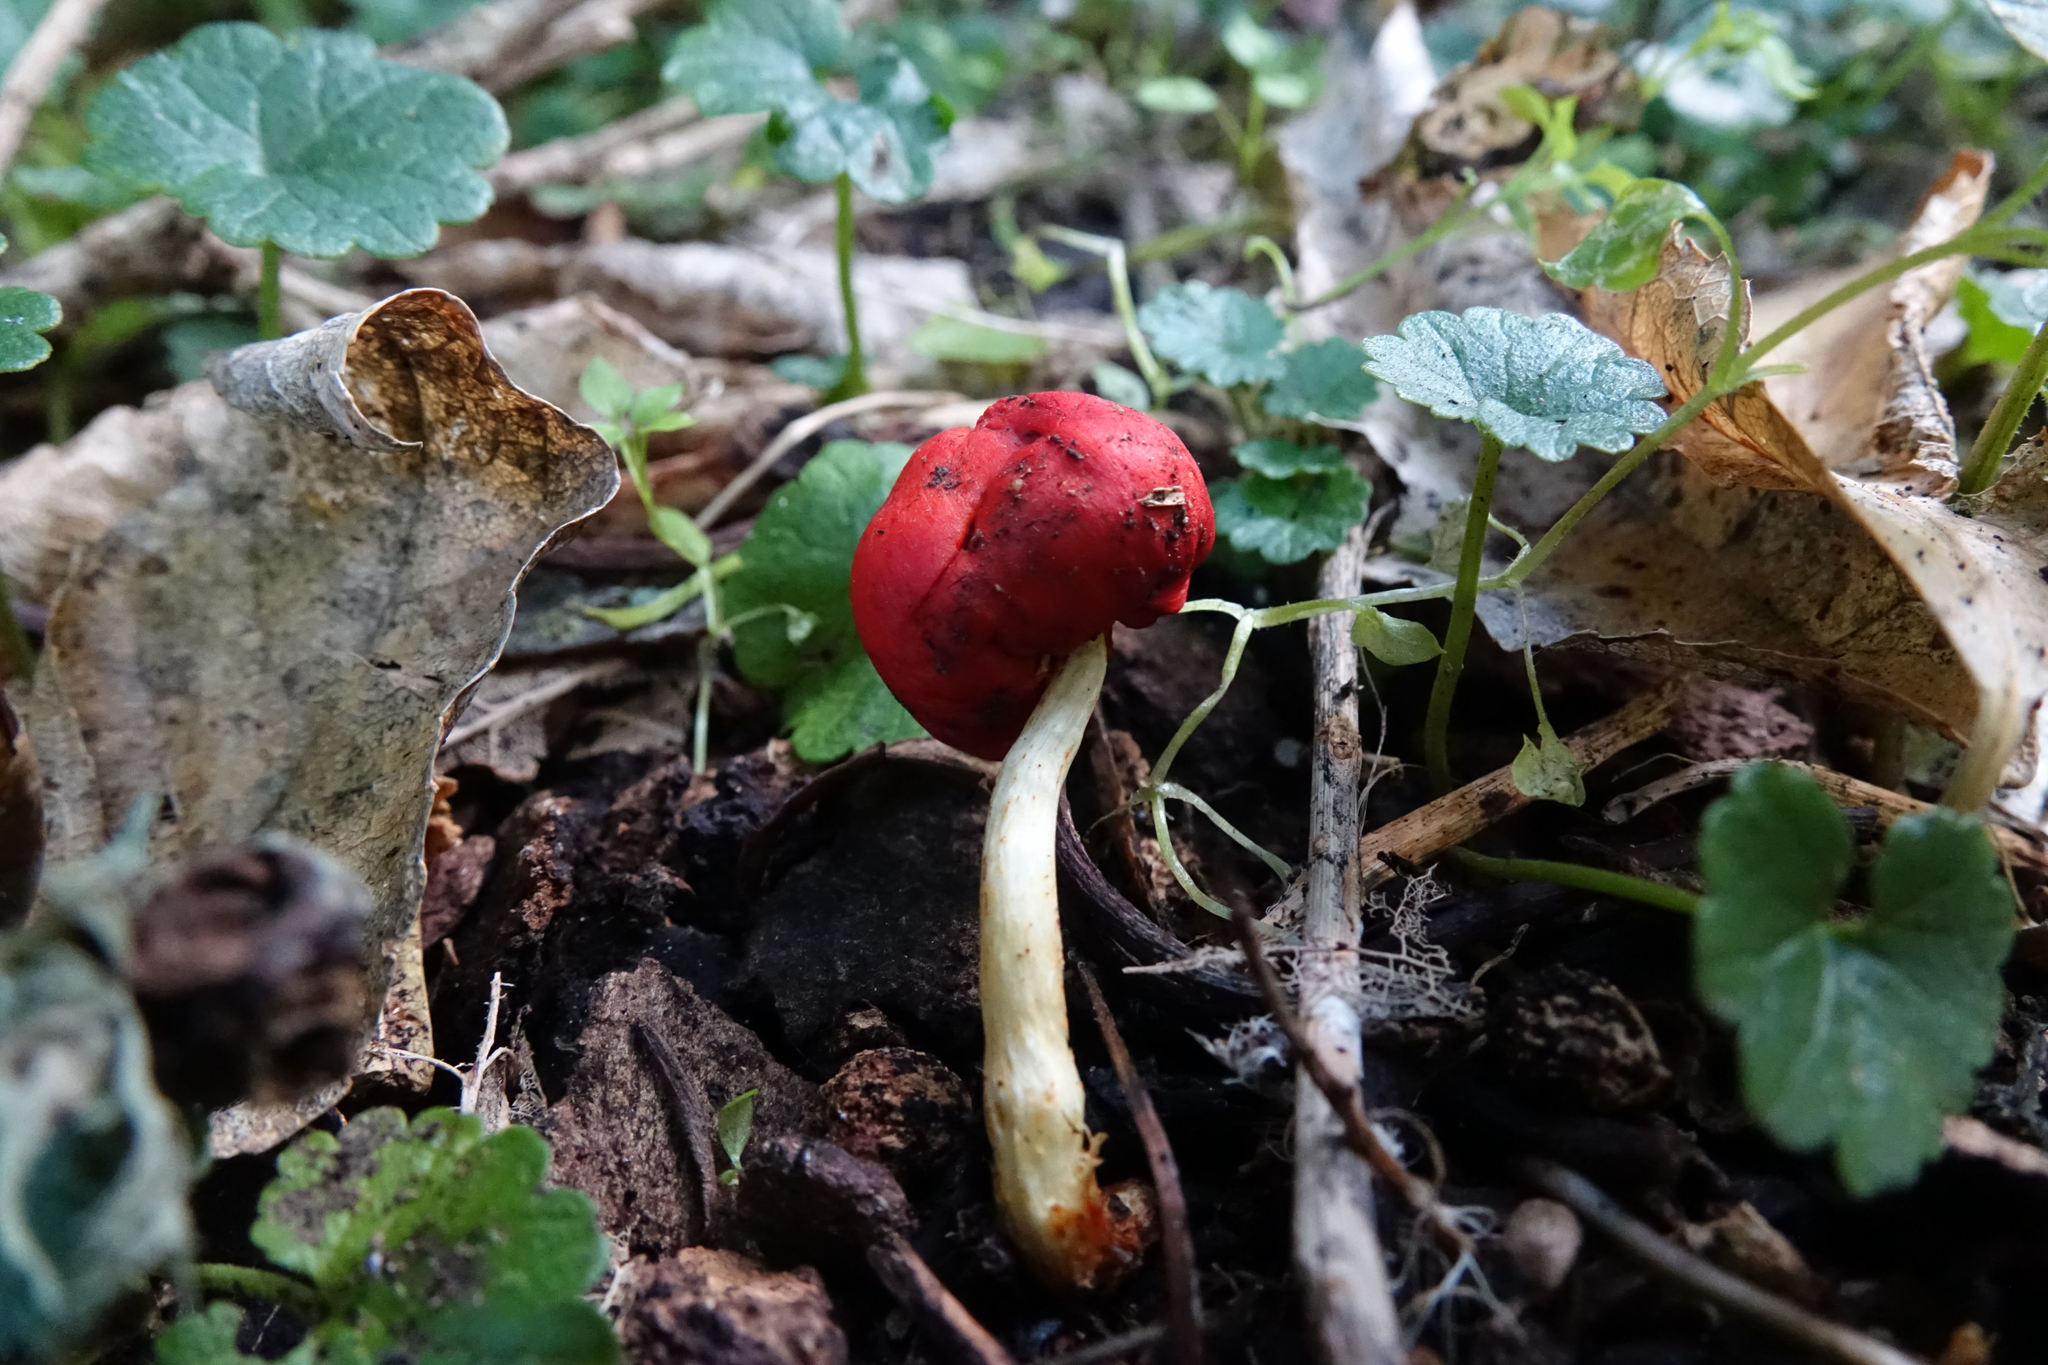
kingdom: Fungi
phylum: Basidiomycota
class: Agaricomycetes
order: Agaricales
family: Strophariaceae
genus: Leratiomyces
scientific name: Leratiomyces erythrocephalus
